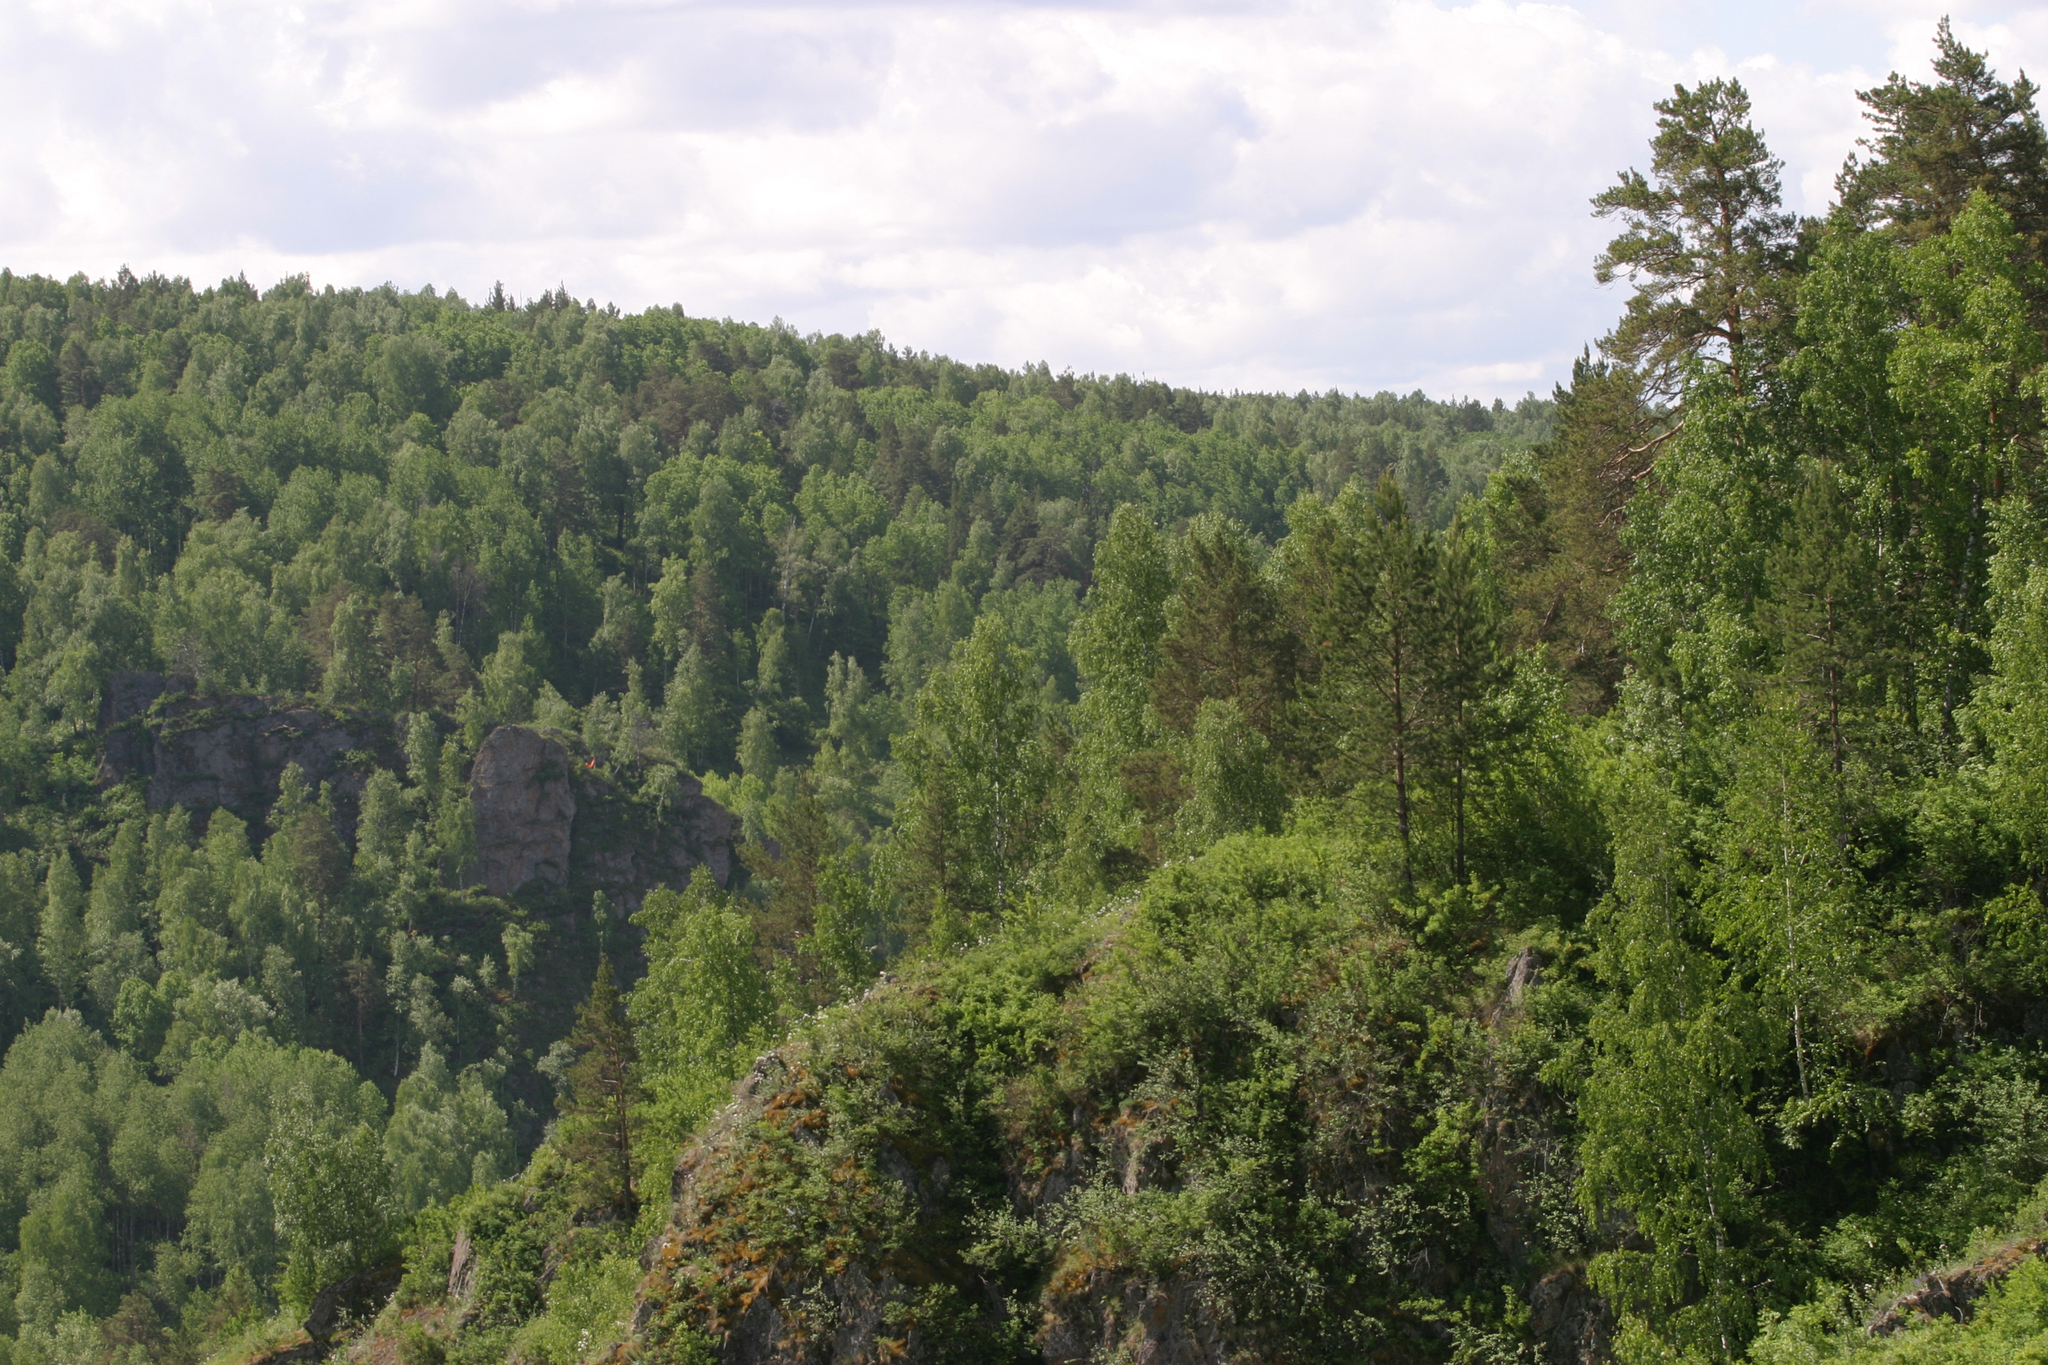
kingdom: Plantae
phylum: Tracheophyta
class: Pinopsida
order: Pinales
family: Pinaceae
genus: Pinus
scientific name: Pinus sylvestris
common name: Scots pine
